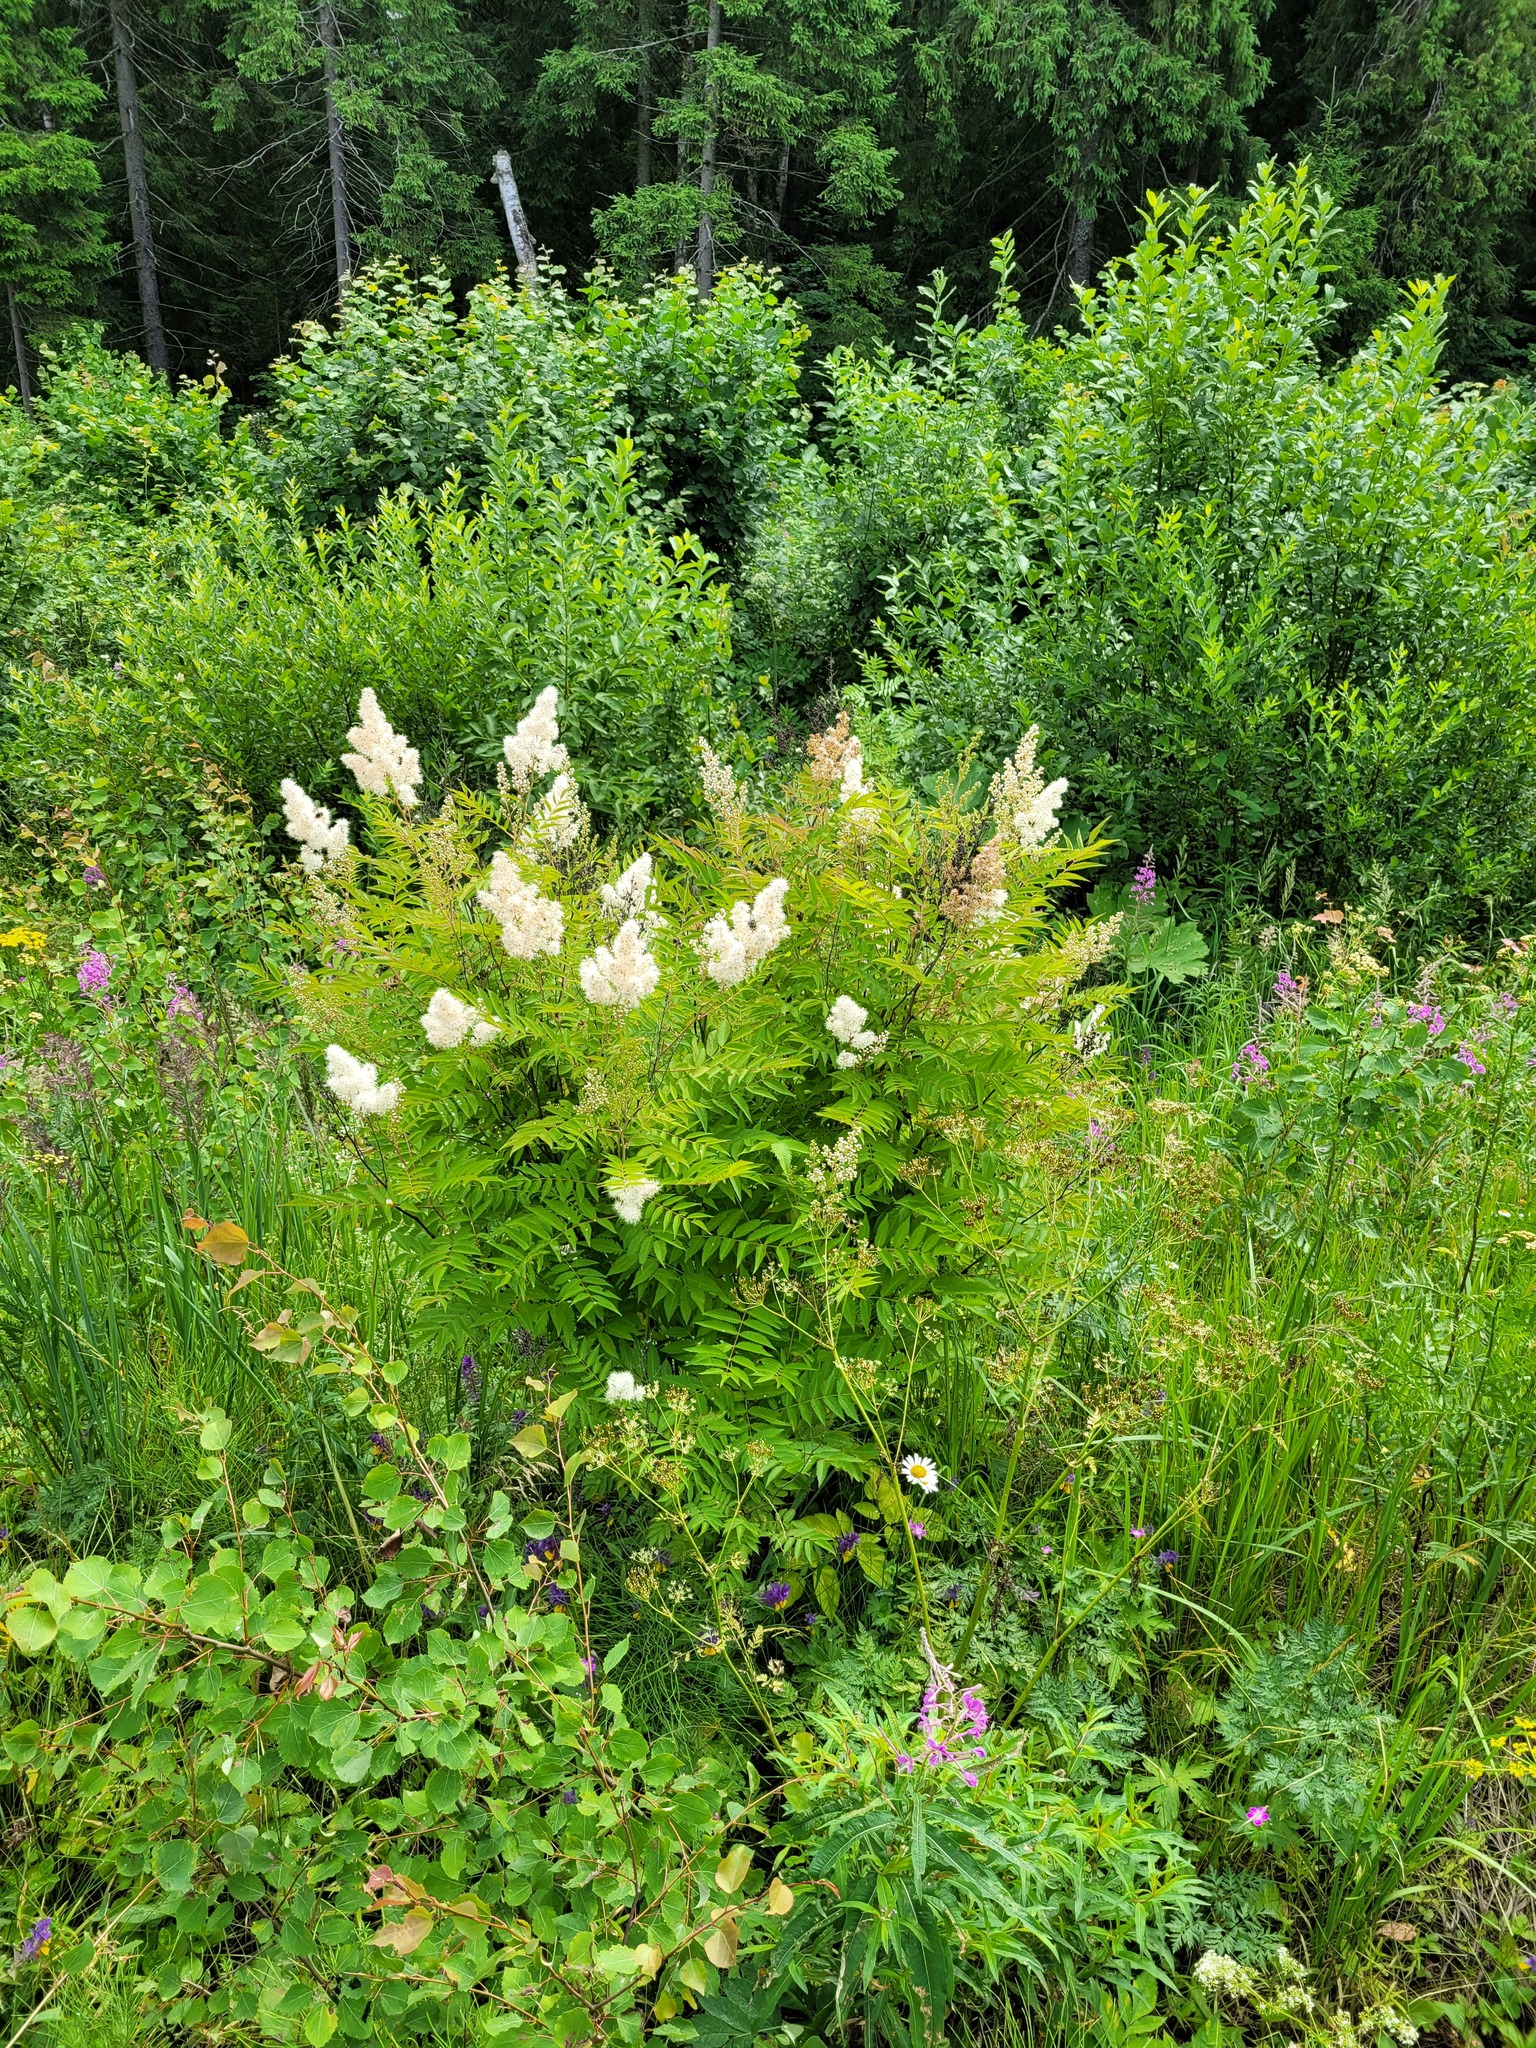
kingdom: Plantae
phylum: Tracheophyta
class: Magnoliopsida
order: Rosales
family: Rosaceae
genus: Sorbaria
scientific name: Sorbaria sorbifolia
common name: False spiraea
